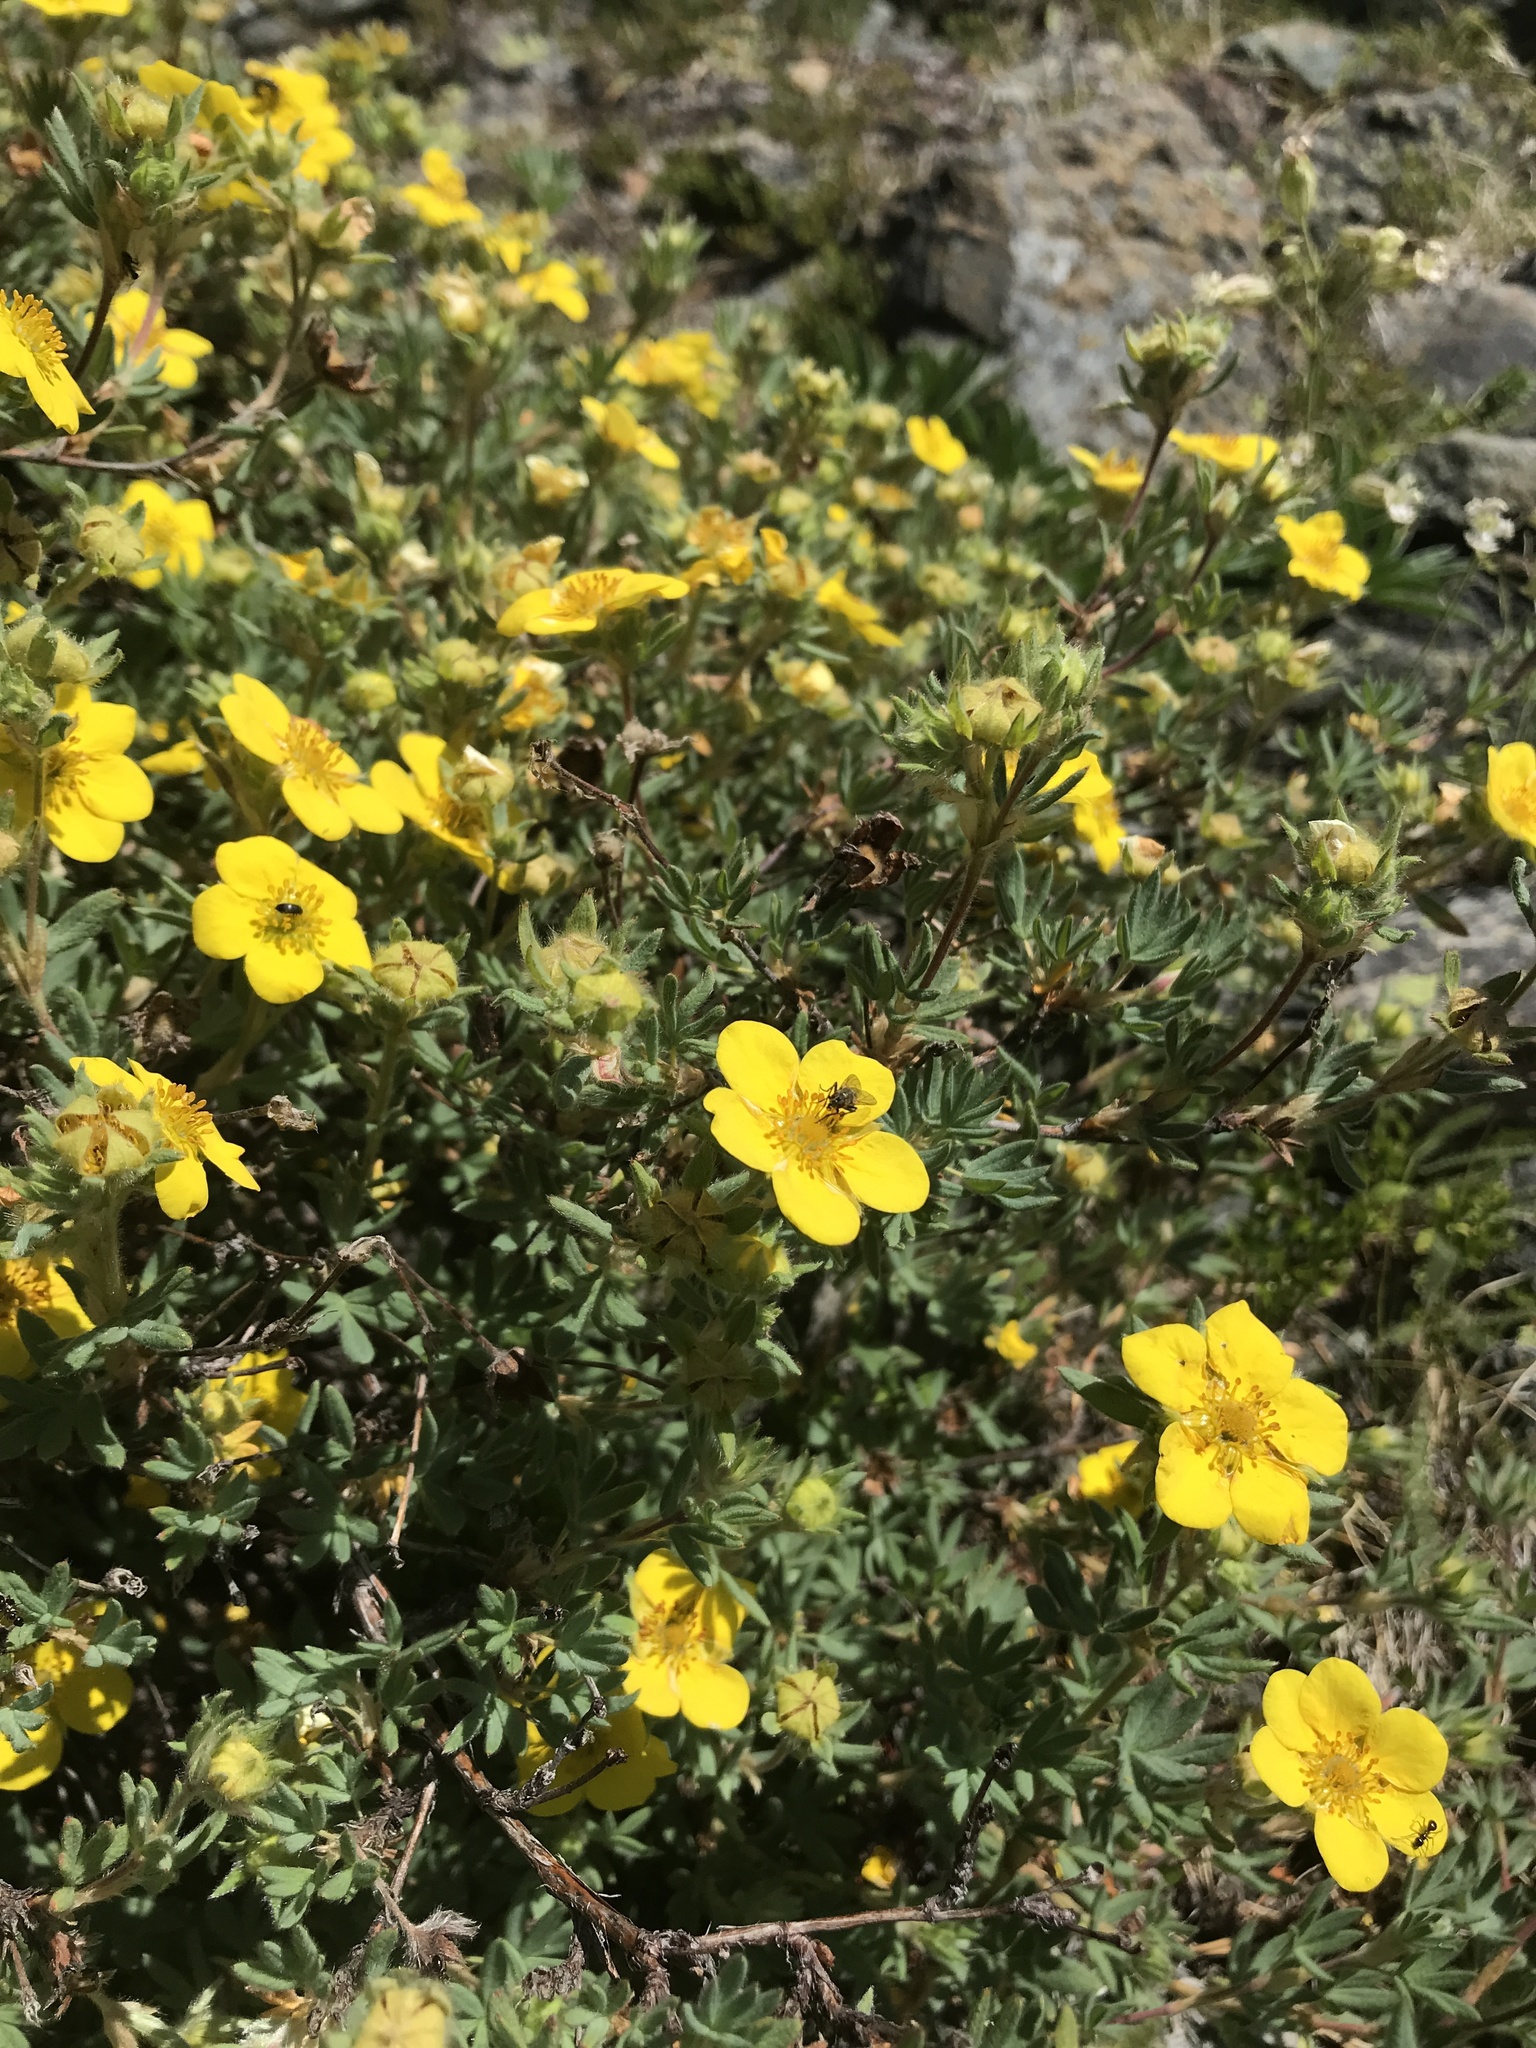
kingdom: Plantae
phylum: Tracheophyta
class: Magnoliopsida
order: Rosales
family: Rosaceae
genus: Dasiphora
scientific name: Dasiphora fruticosa
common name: Shrubby cinquefoil
